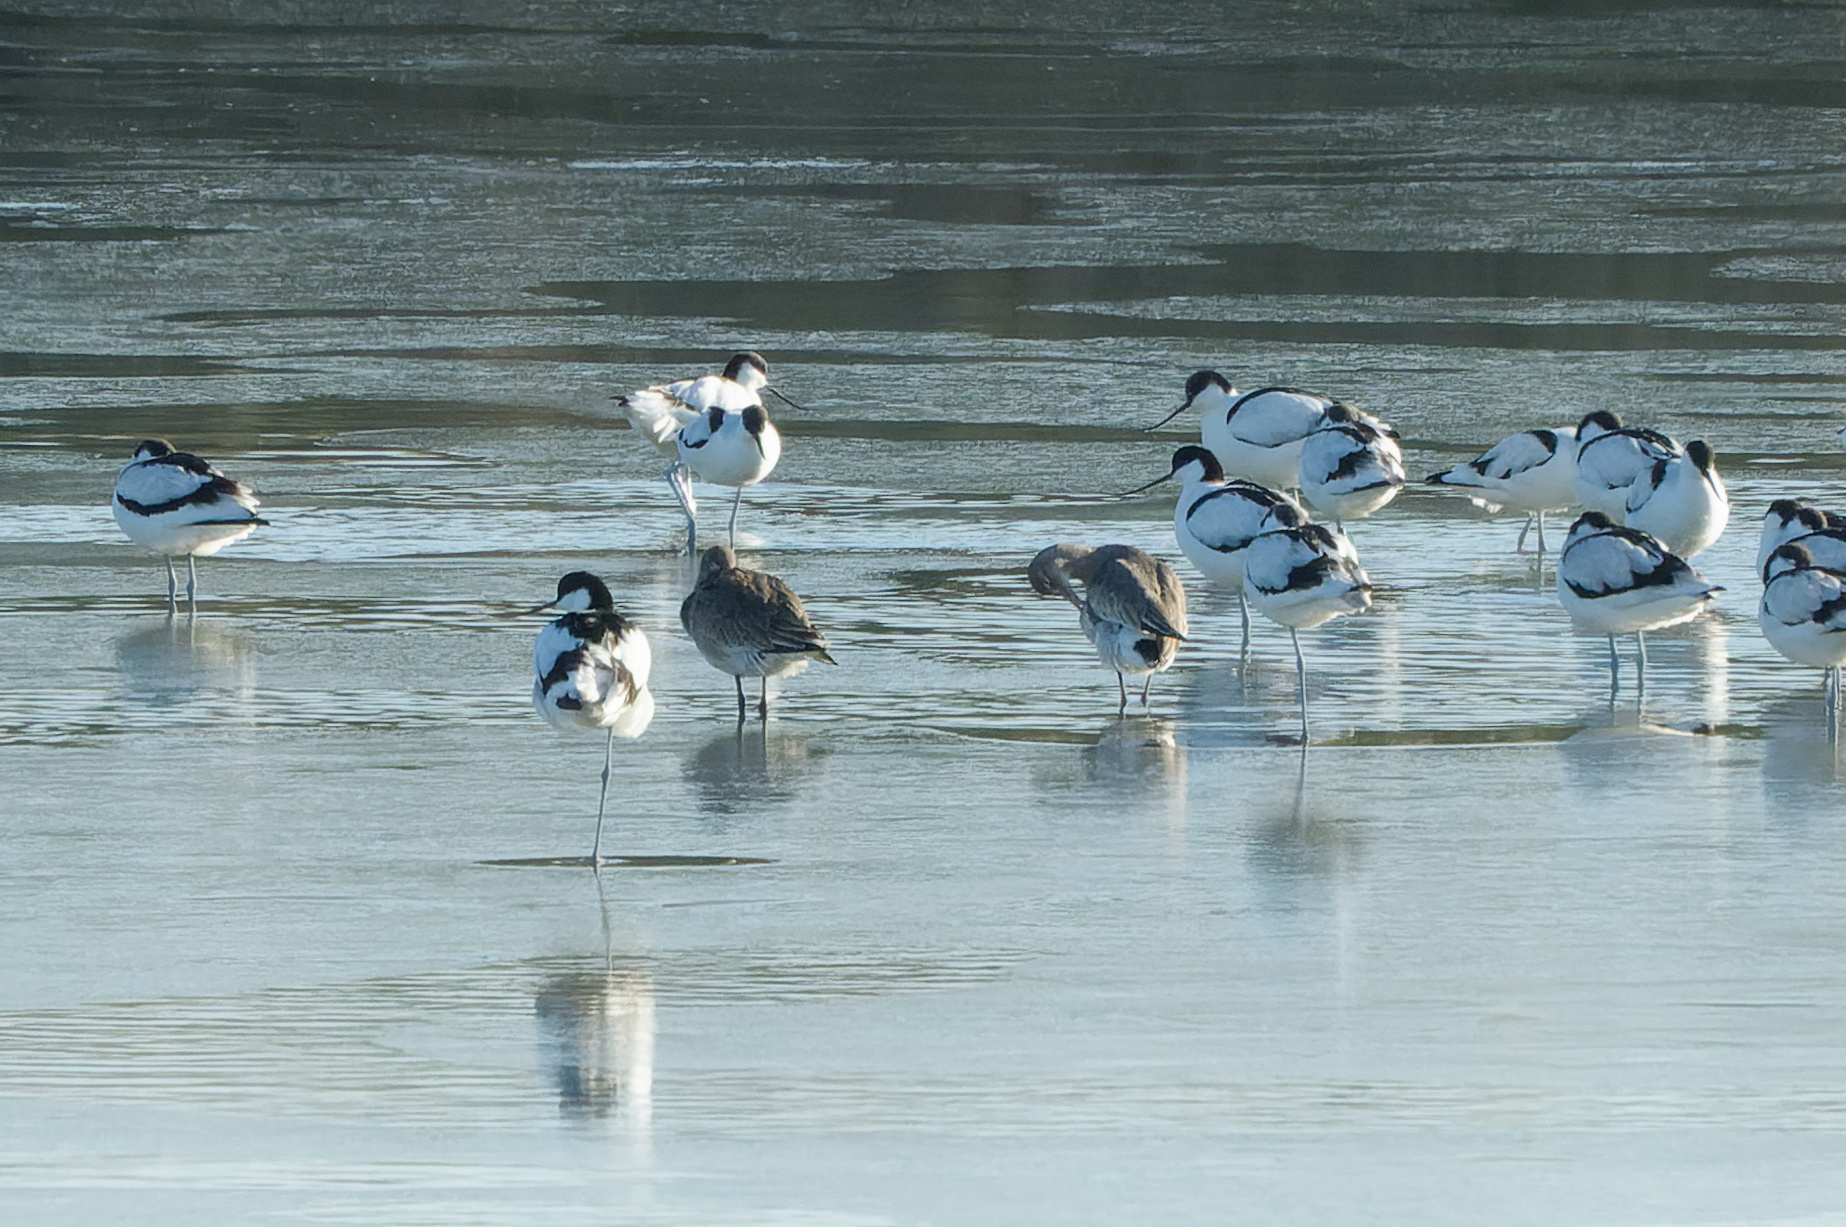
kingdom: Animalia
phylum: Chordata
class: Aves
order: Charadriiformes
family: Scolopacidae
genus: Limosa
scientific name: Limosa limosa
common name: Black-tailed godwit
